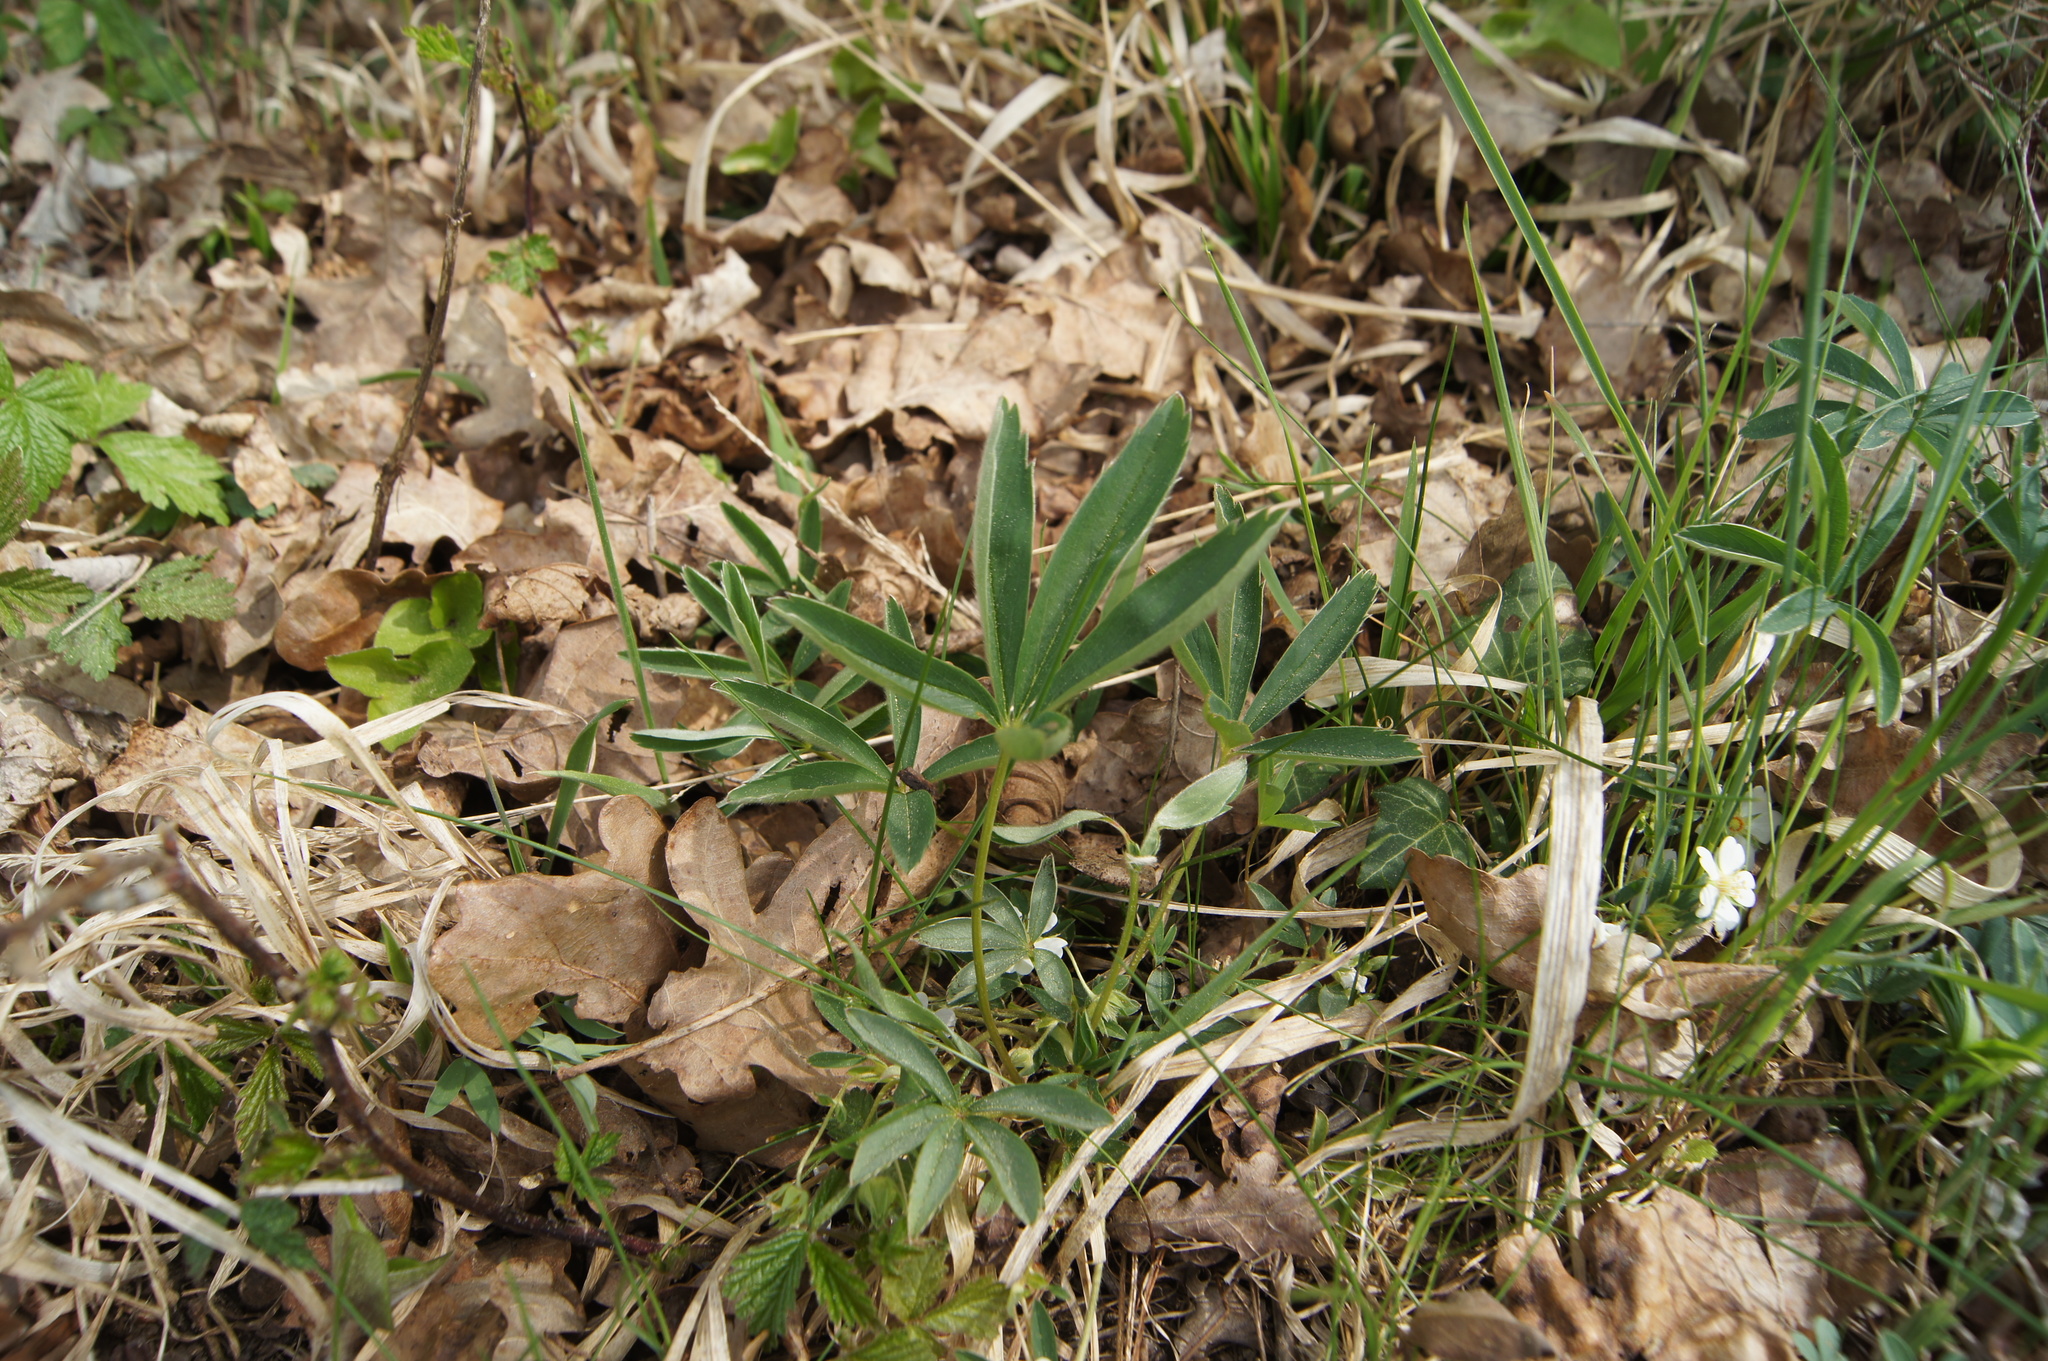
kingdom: Plantae
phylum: Tracheophyta
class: Magnoliopsida
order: Rosales
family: Rosaceae
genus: Potentilla
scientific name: Potentilla alba
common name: White cinquefoil
